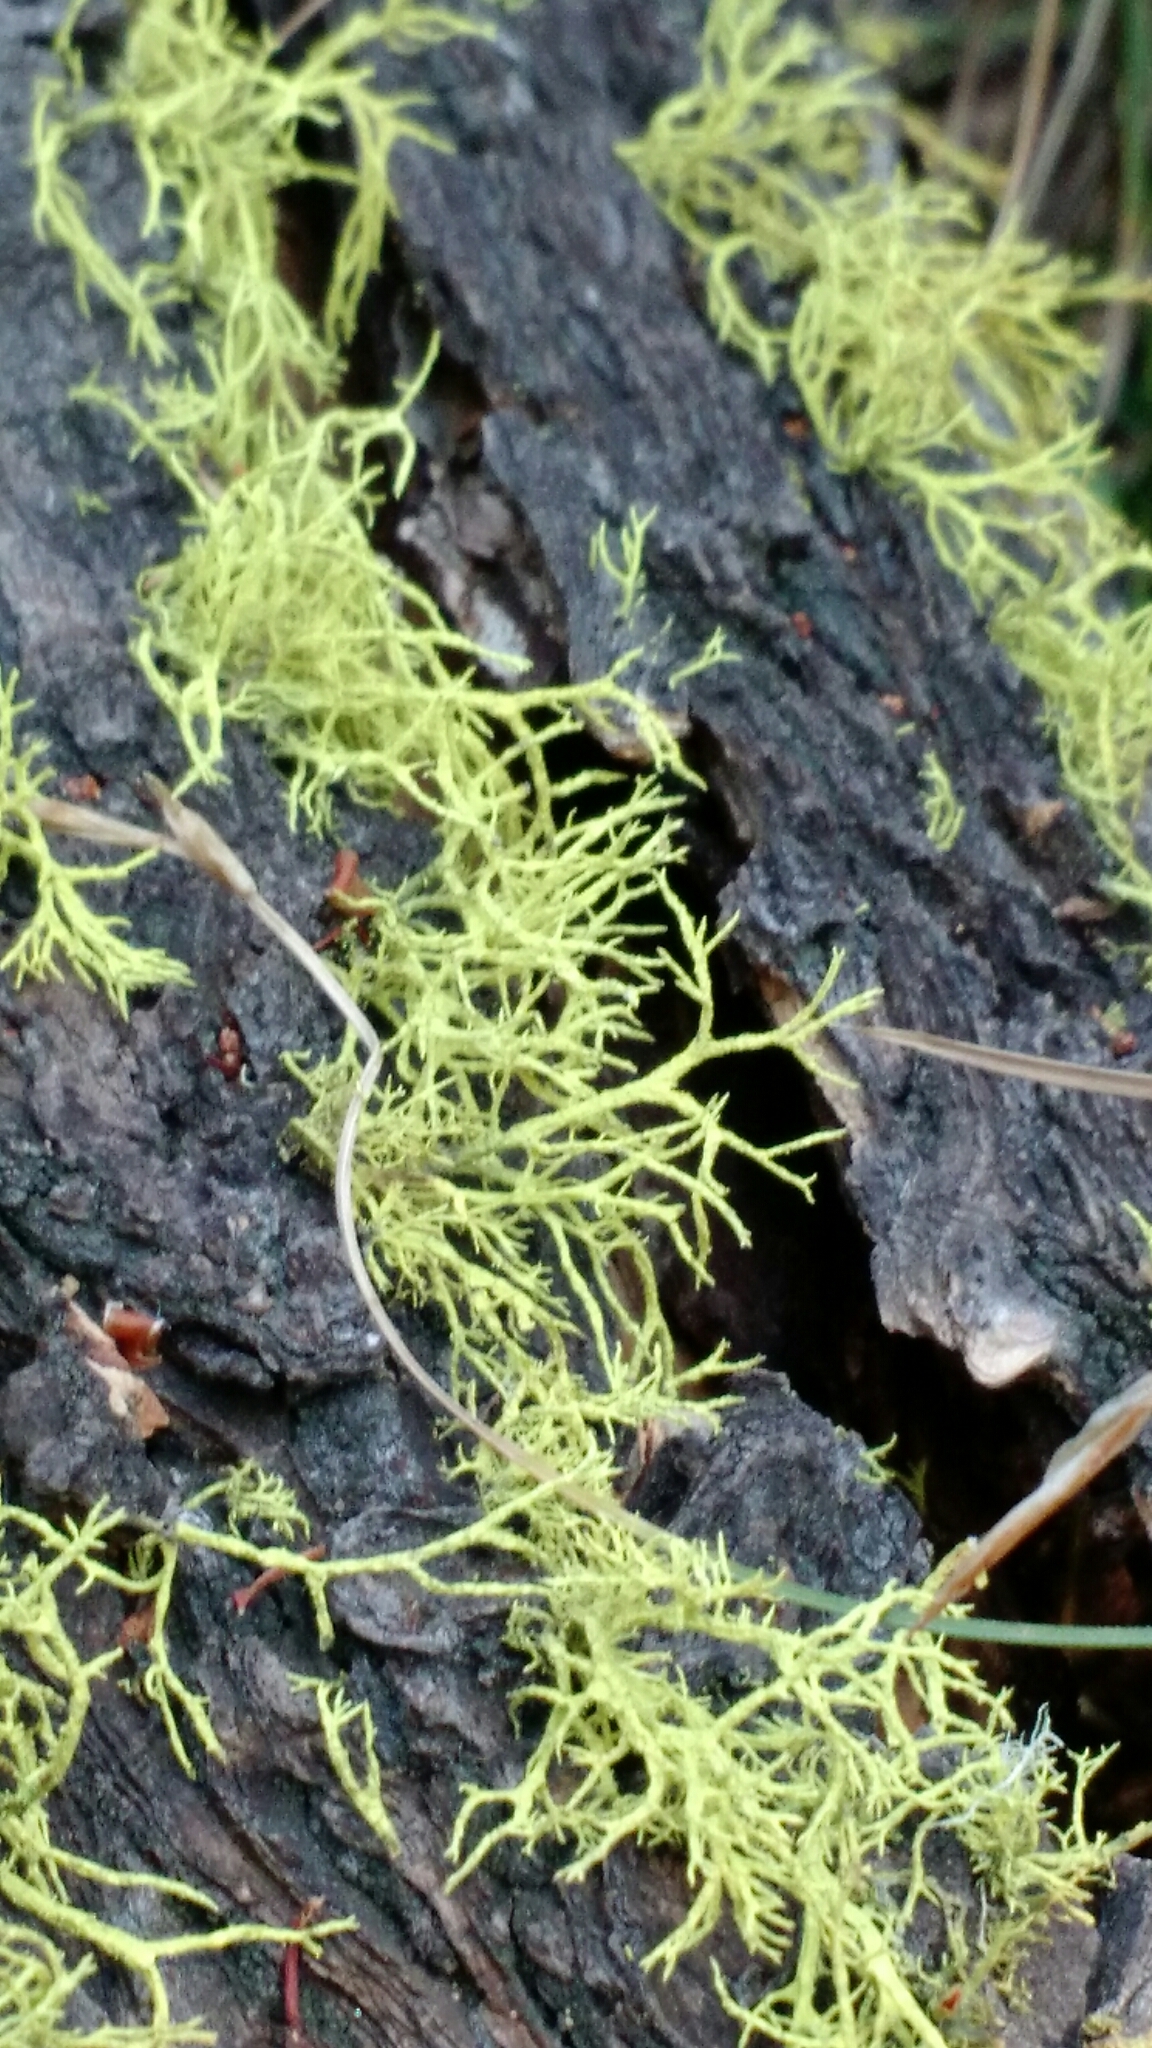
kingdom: Fungi
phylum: Ascomycota
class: Lecanoromycetes
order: Lecanorales
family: Parmeliaceae
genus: Letharia
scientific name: Letharia vulpina
